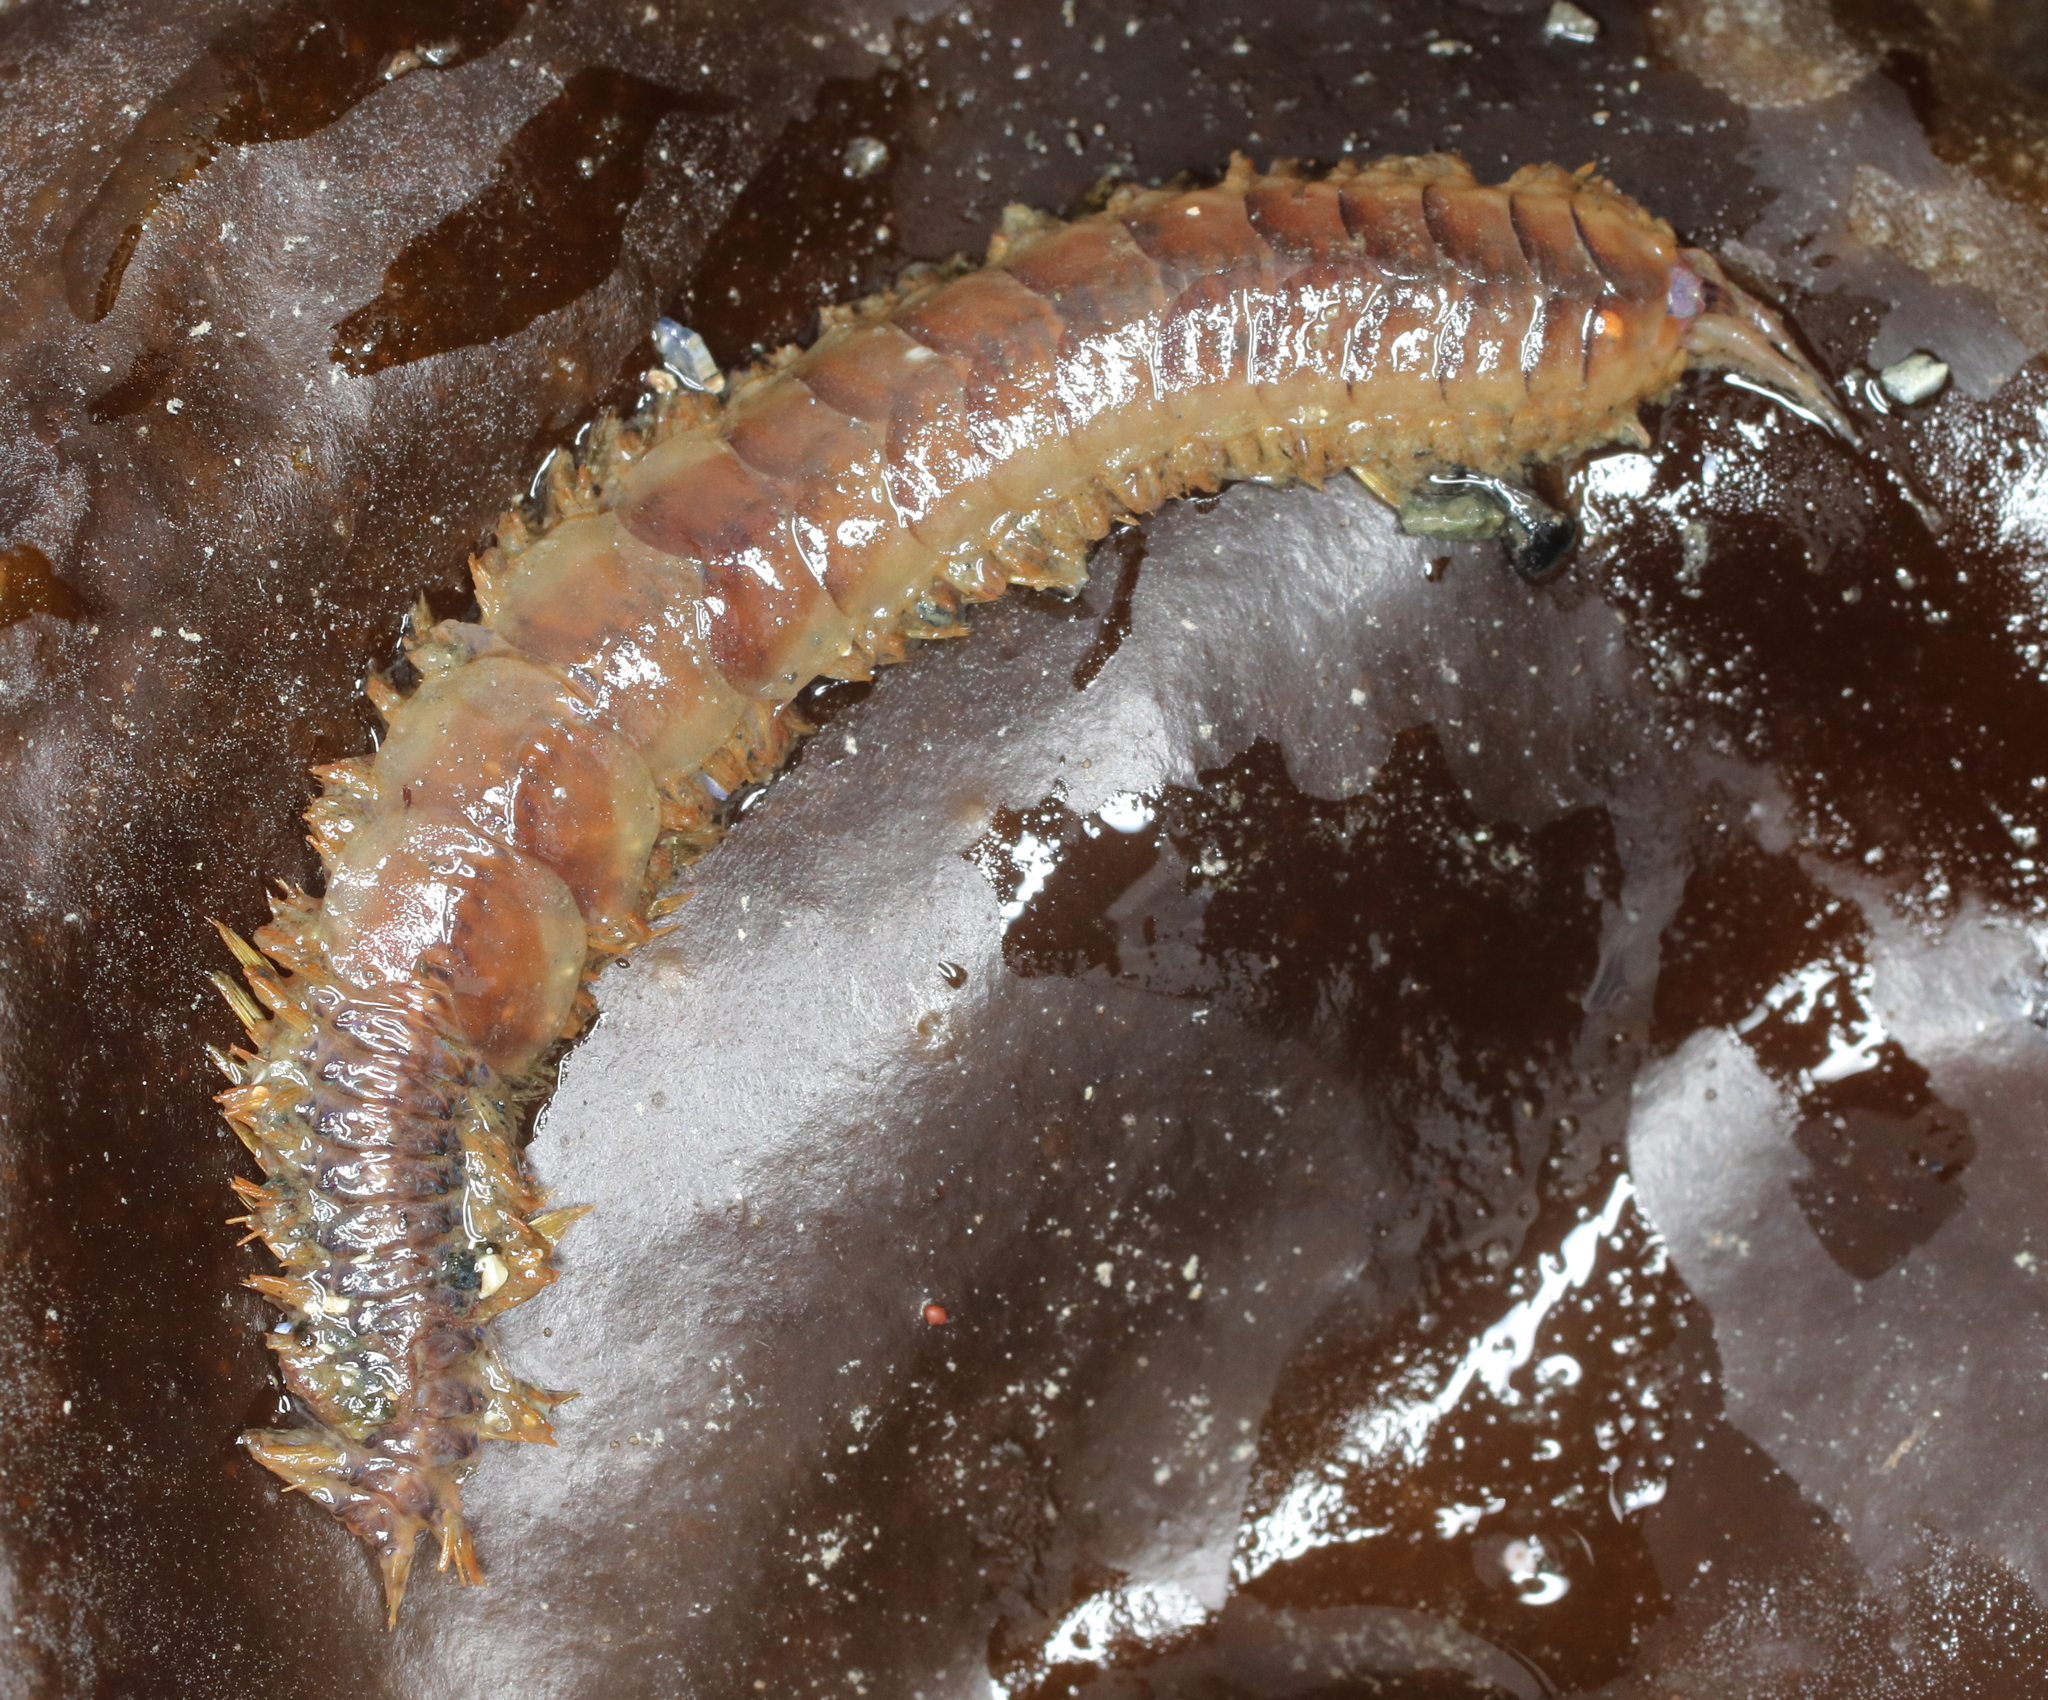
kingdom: Animalia
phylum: Annelida
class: Polychaeta
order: Phyllodocida
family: Polynoidae
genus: Hermadionella
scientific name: Hermadionella truncata
